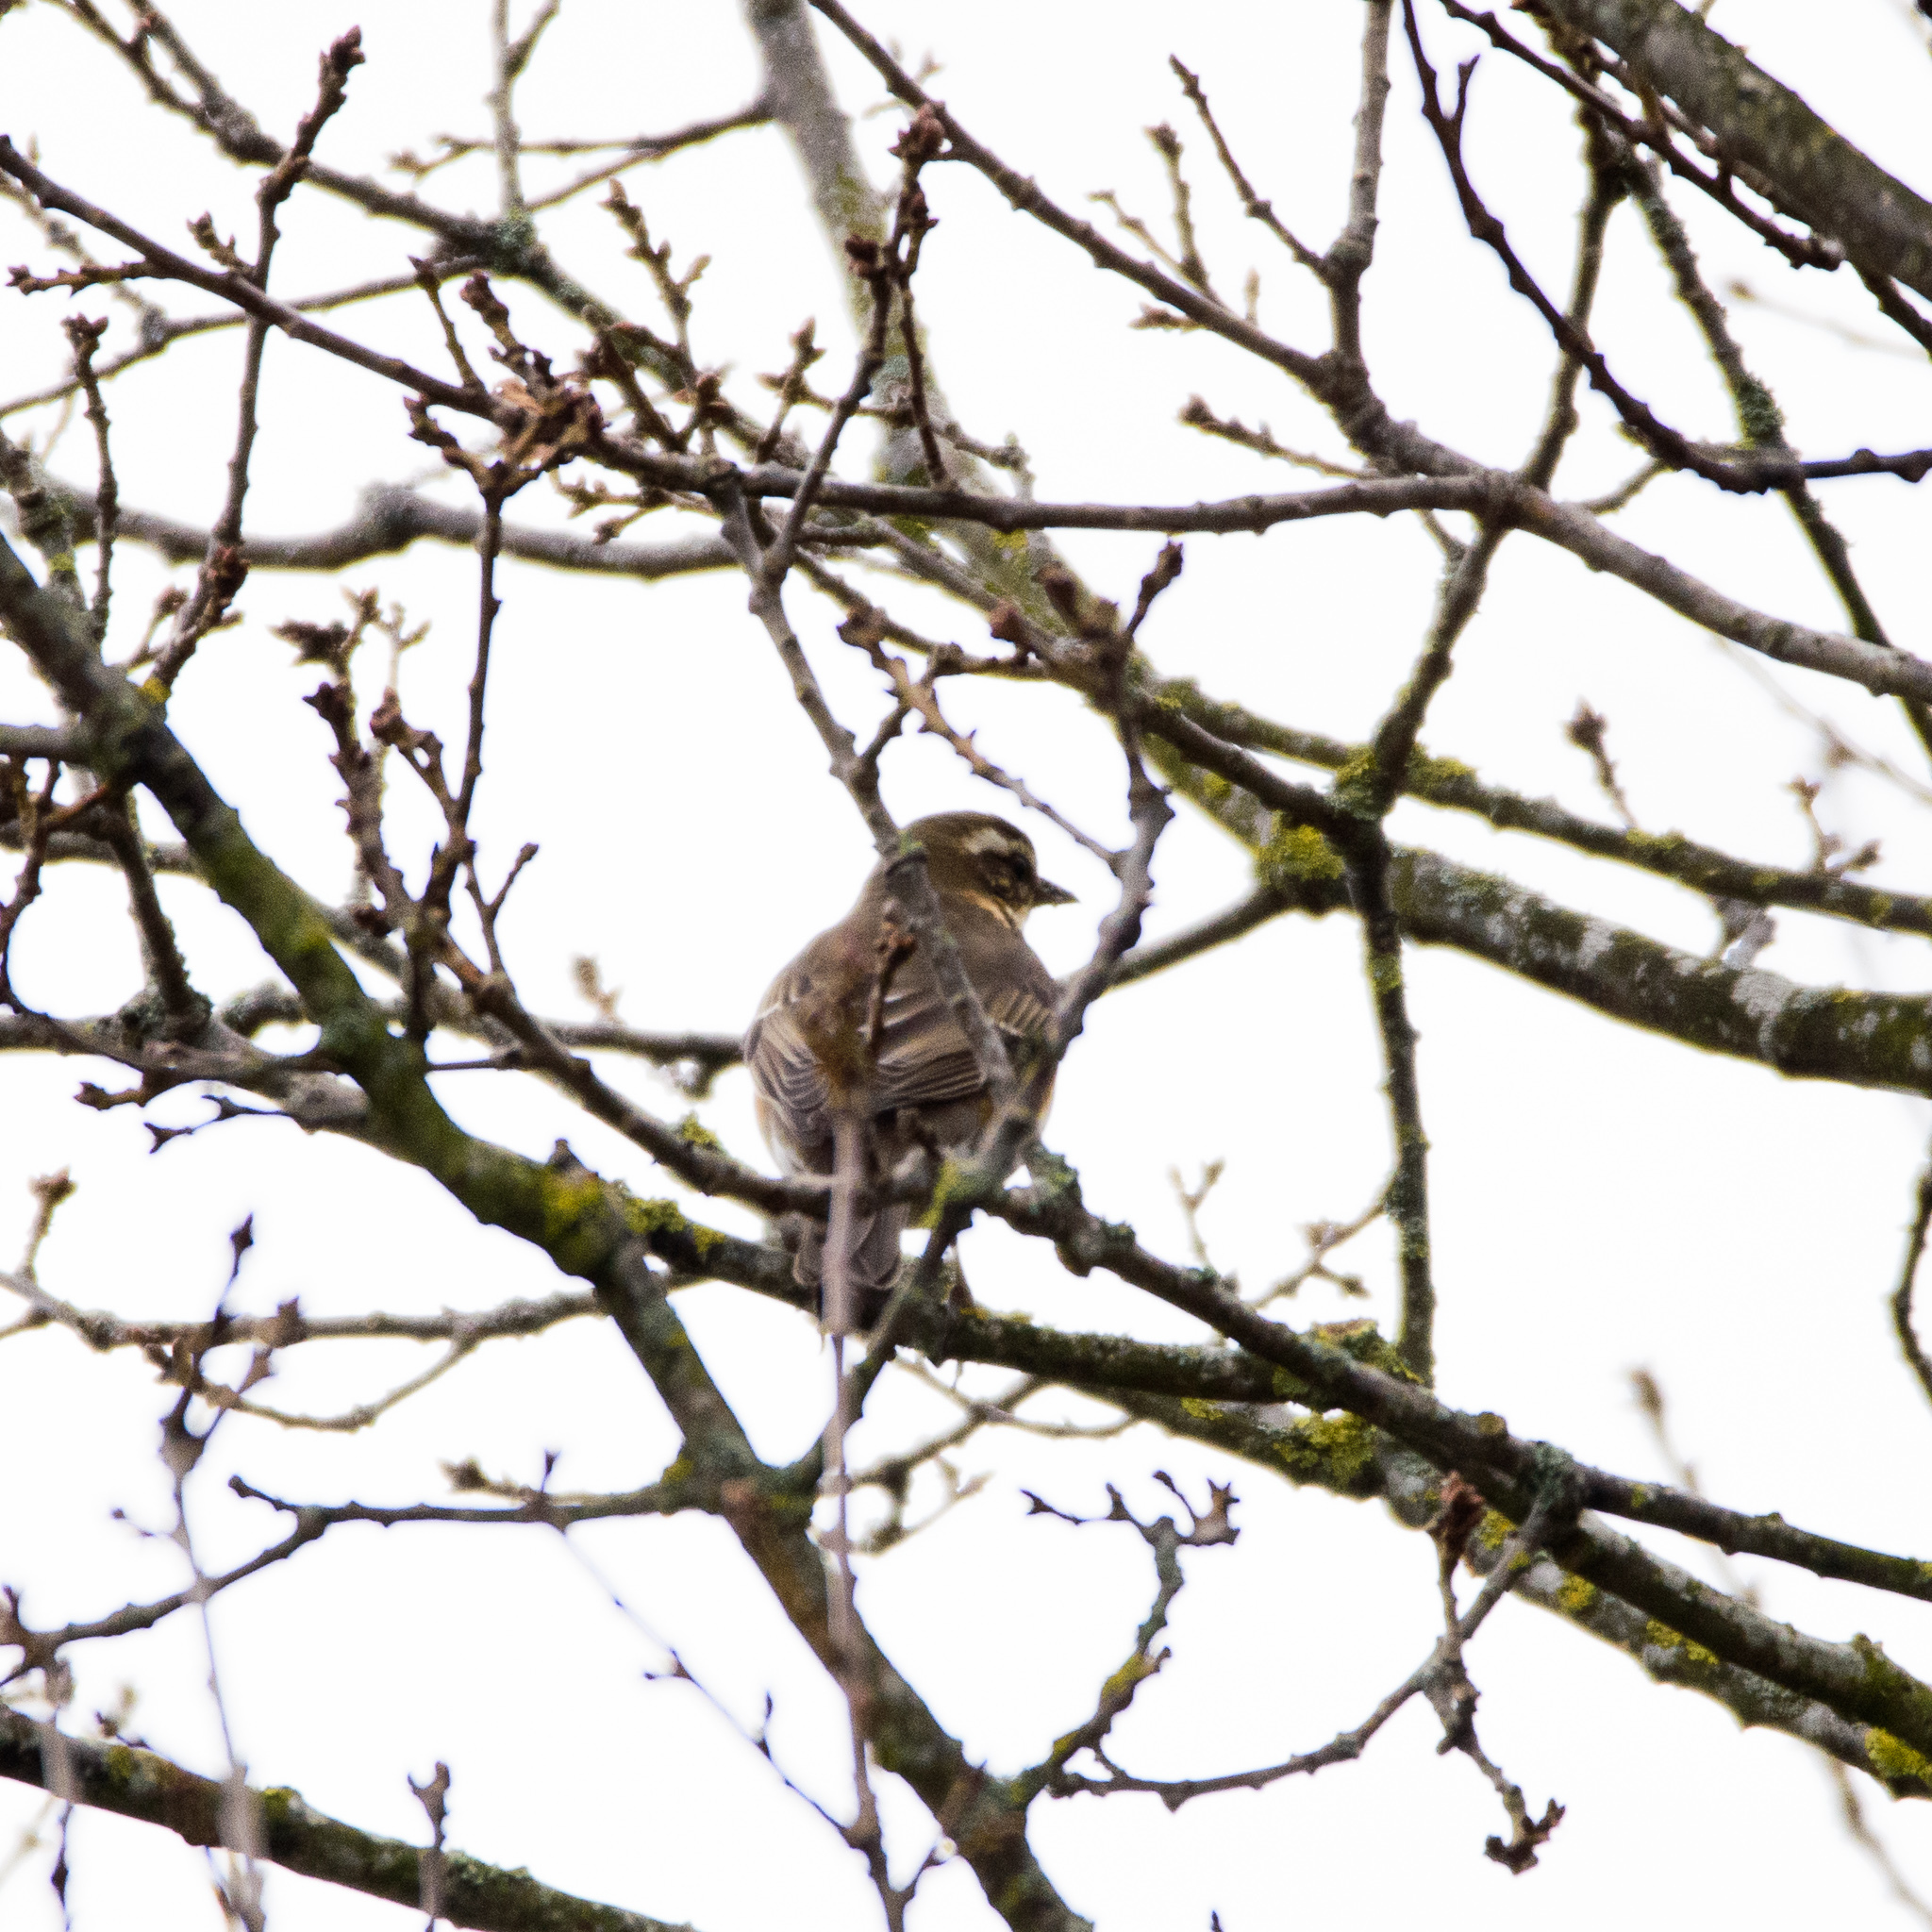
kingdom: Animalia
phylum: Chordata
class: Aves
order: Passeriformes
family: Turdidae
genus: Turdus
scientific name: Turdus iliacus
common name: Redwing
